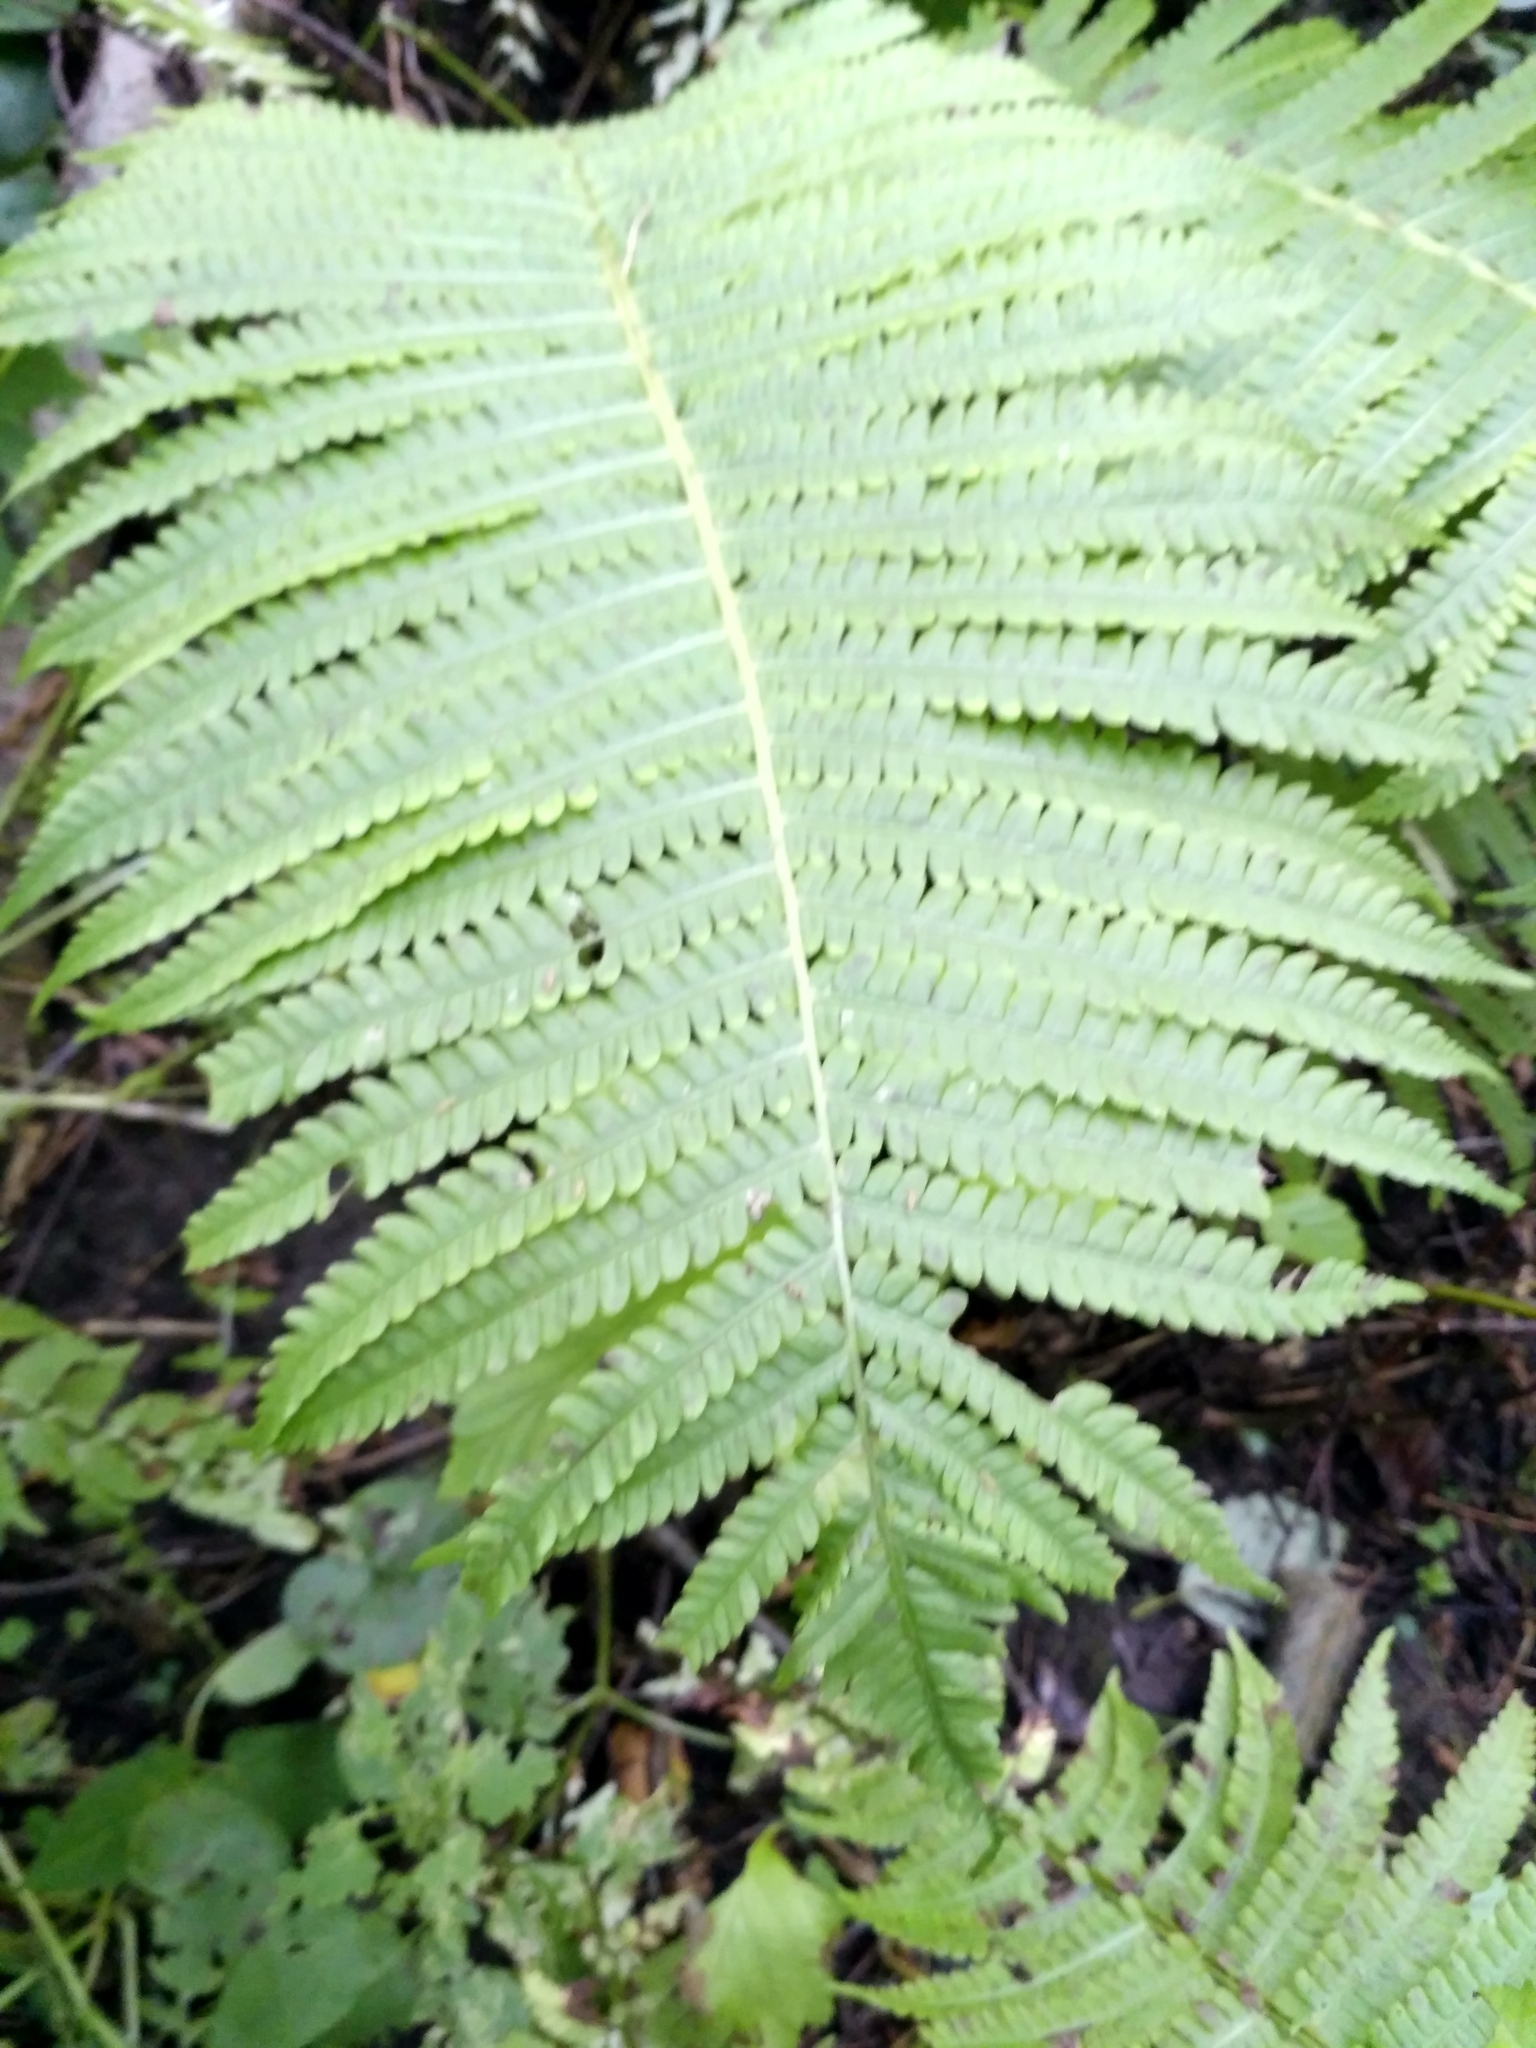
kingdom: Plantae
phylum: Tracheophyta
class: Polypodiopsida
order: Polypodiales
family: Onocleaceae
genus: Matteuccia
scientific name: Matteuccia struthiopteris
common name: Ostrich fern
